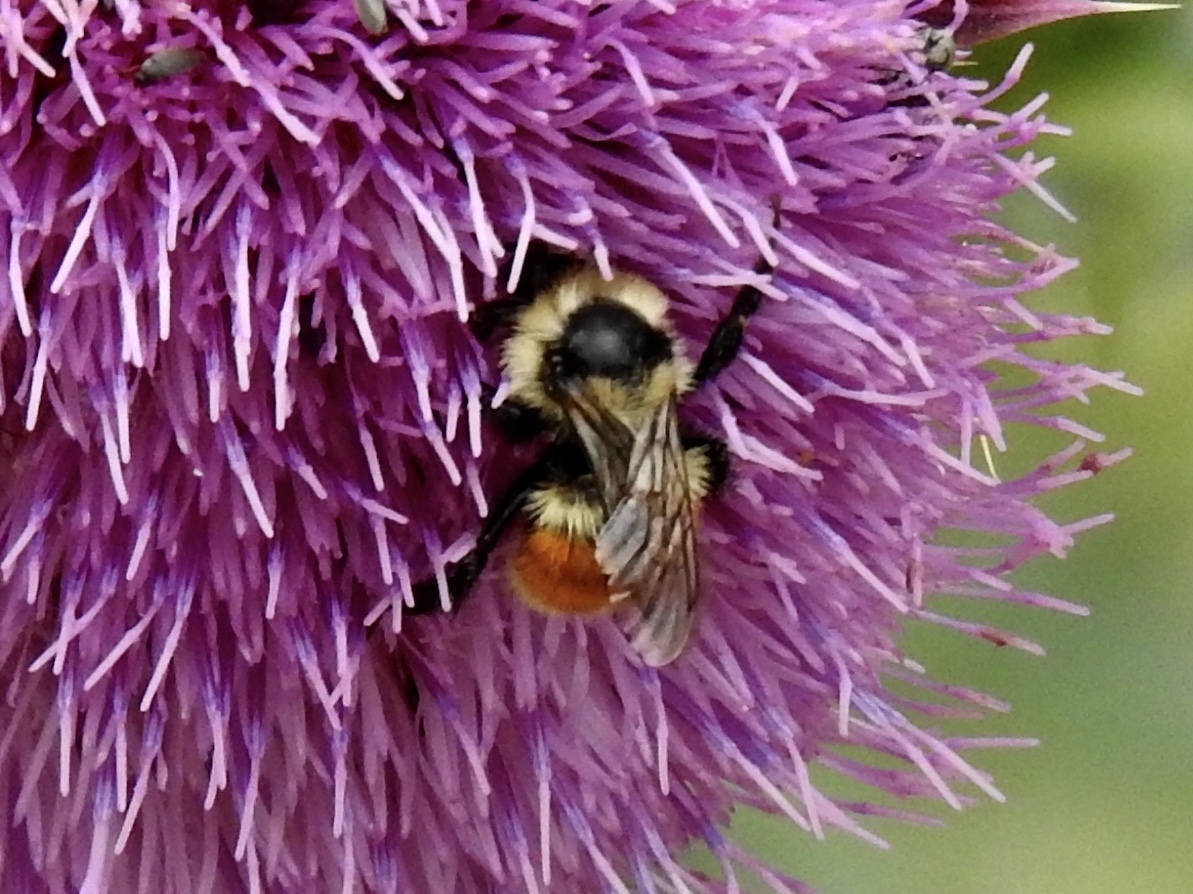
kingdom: Animalia
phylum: Arthropoda
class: Insecta
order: Hymenoptera
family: Apidae
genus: Bombus
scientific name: Bombus huntii
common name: Hunt bumble bee
